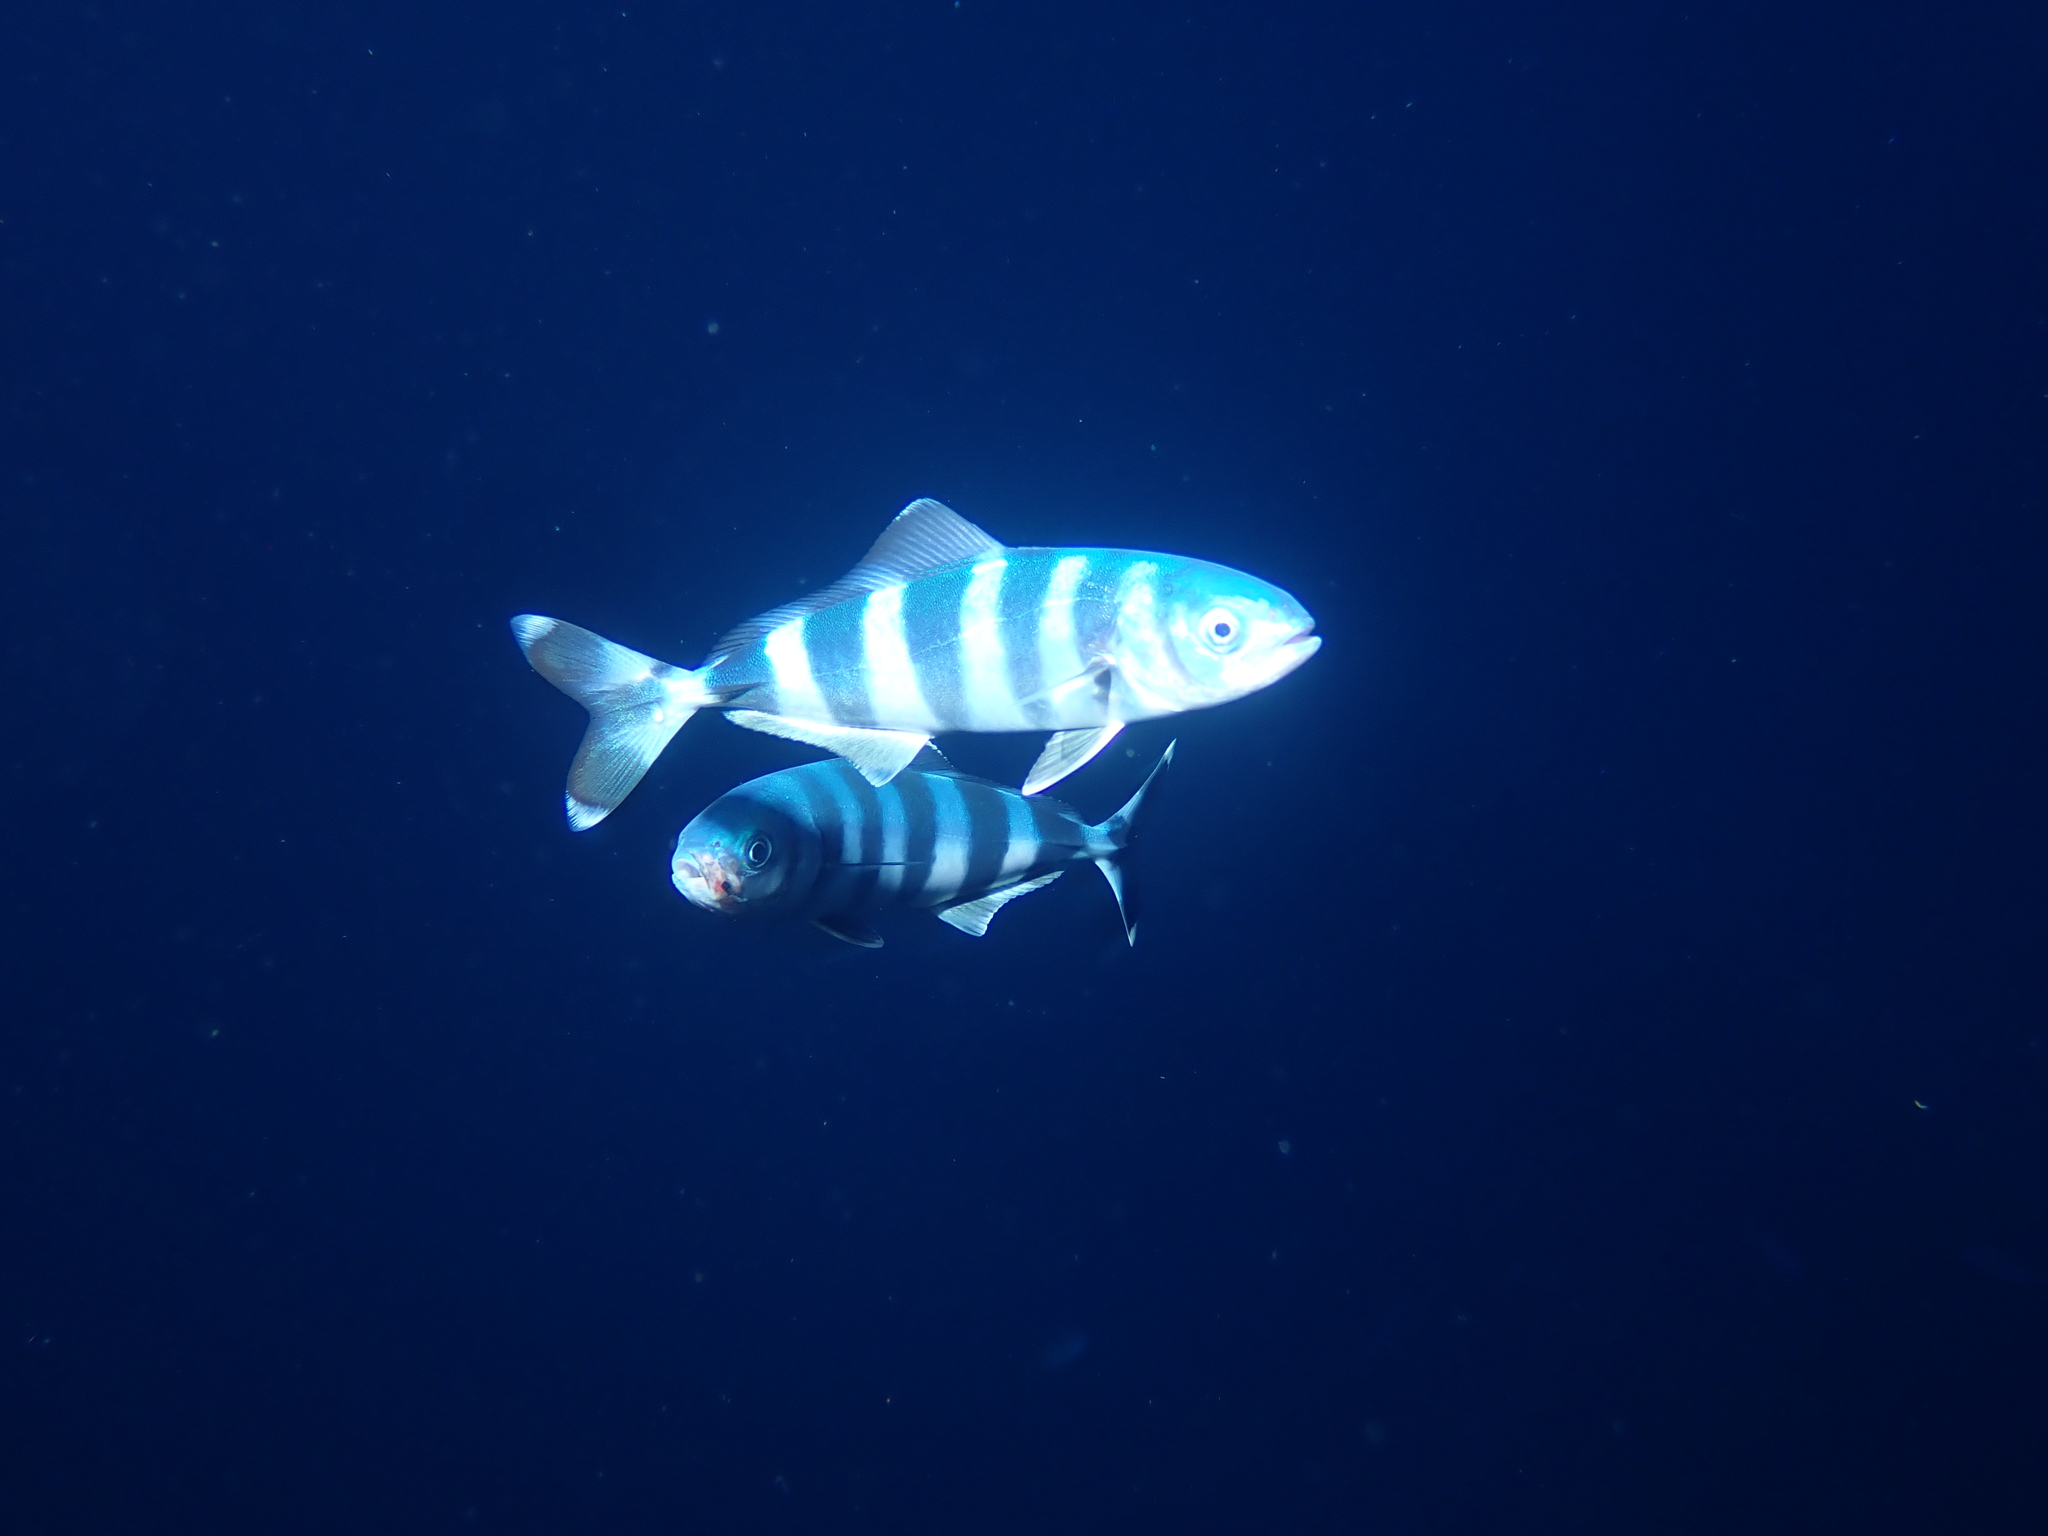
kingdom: Animalia
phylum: Chordata
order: Perciformes
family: Carangidae
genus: Naucrates
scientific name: Naucrates ductor
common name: Pilotfish
